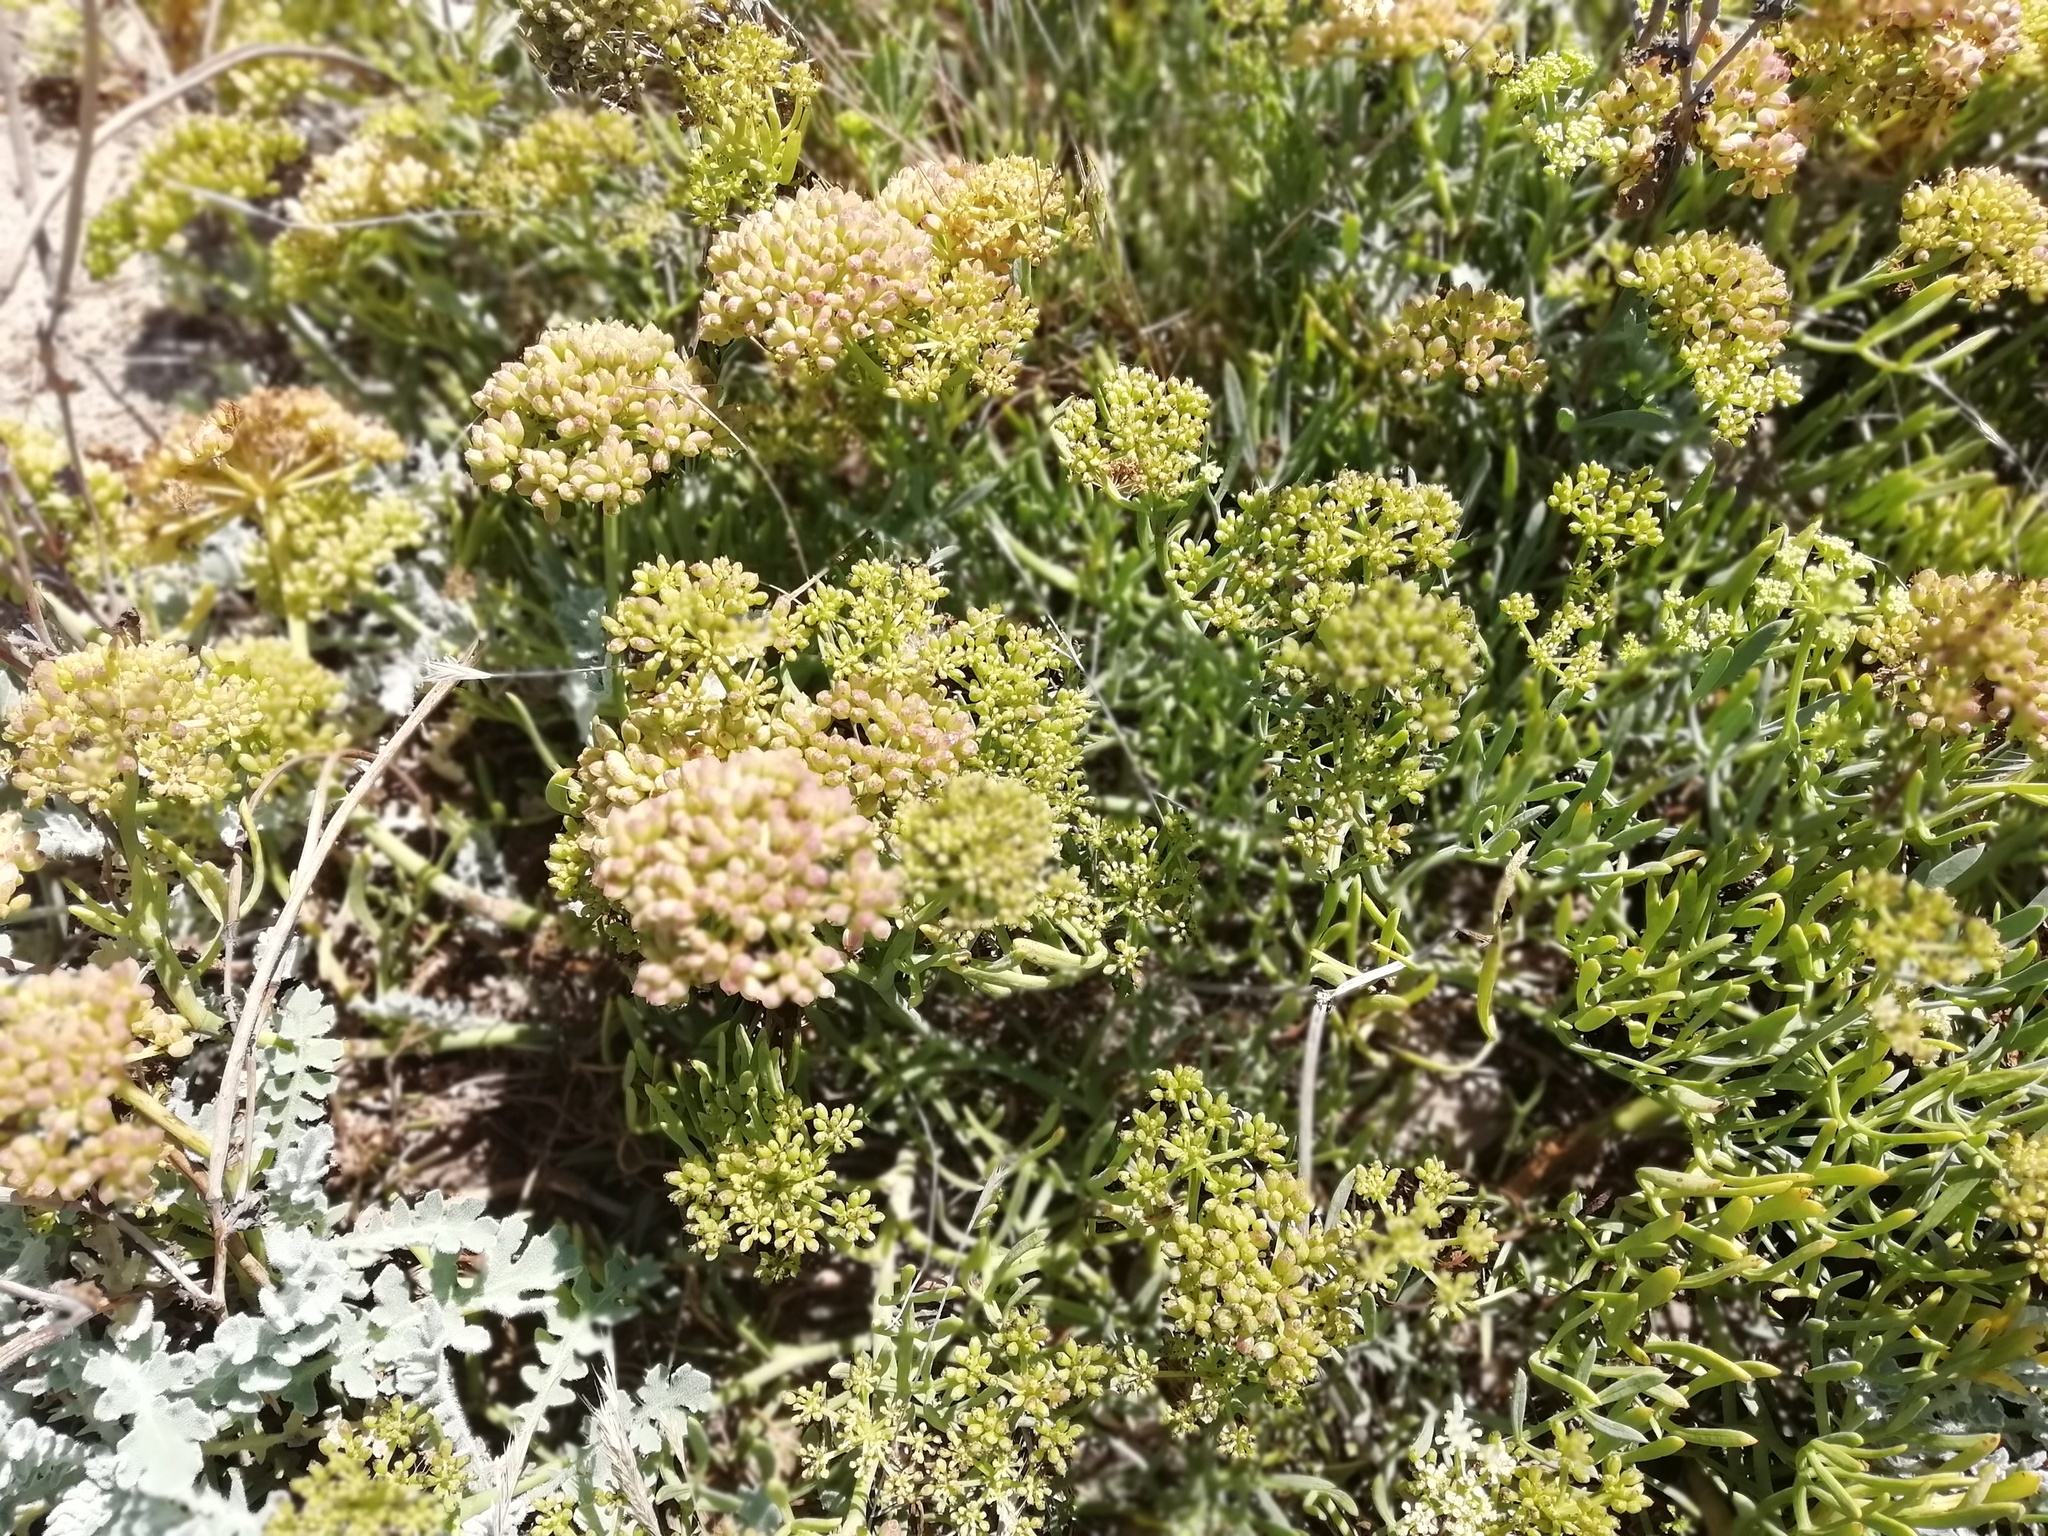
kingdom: Plantae
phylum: Tracheophyta
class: Magnoliopsida
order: Apiales
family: Apiaceae
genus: Crithmum
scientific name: Crithmum maritimum
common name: Rock samphire
